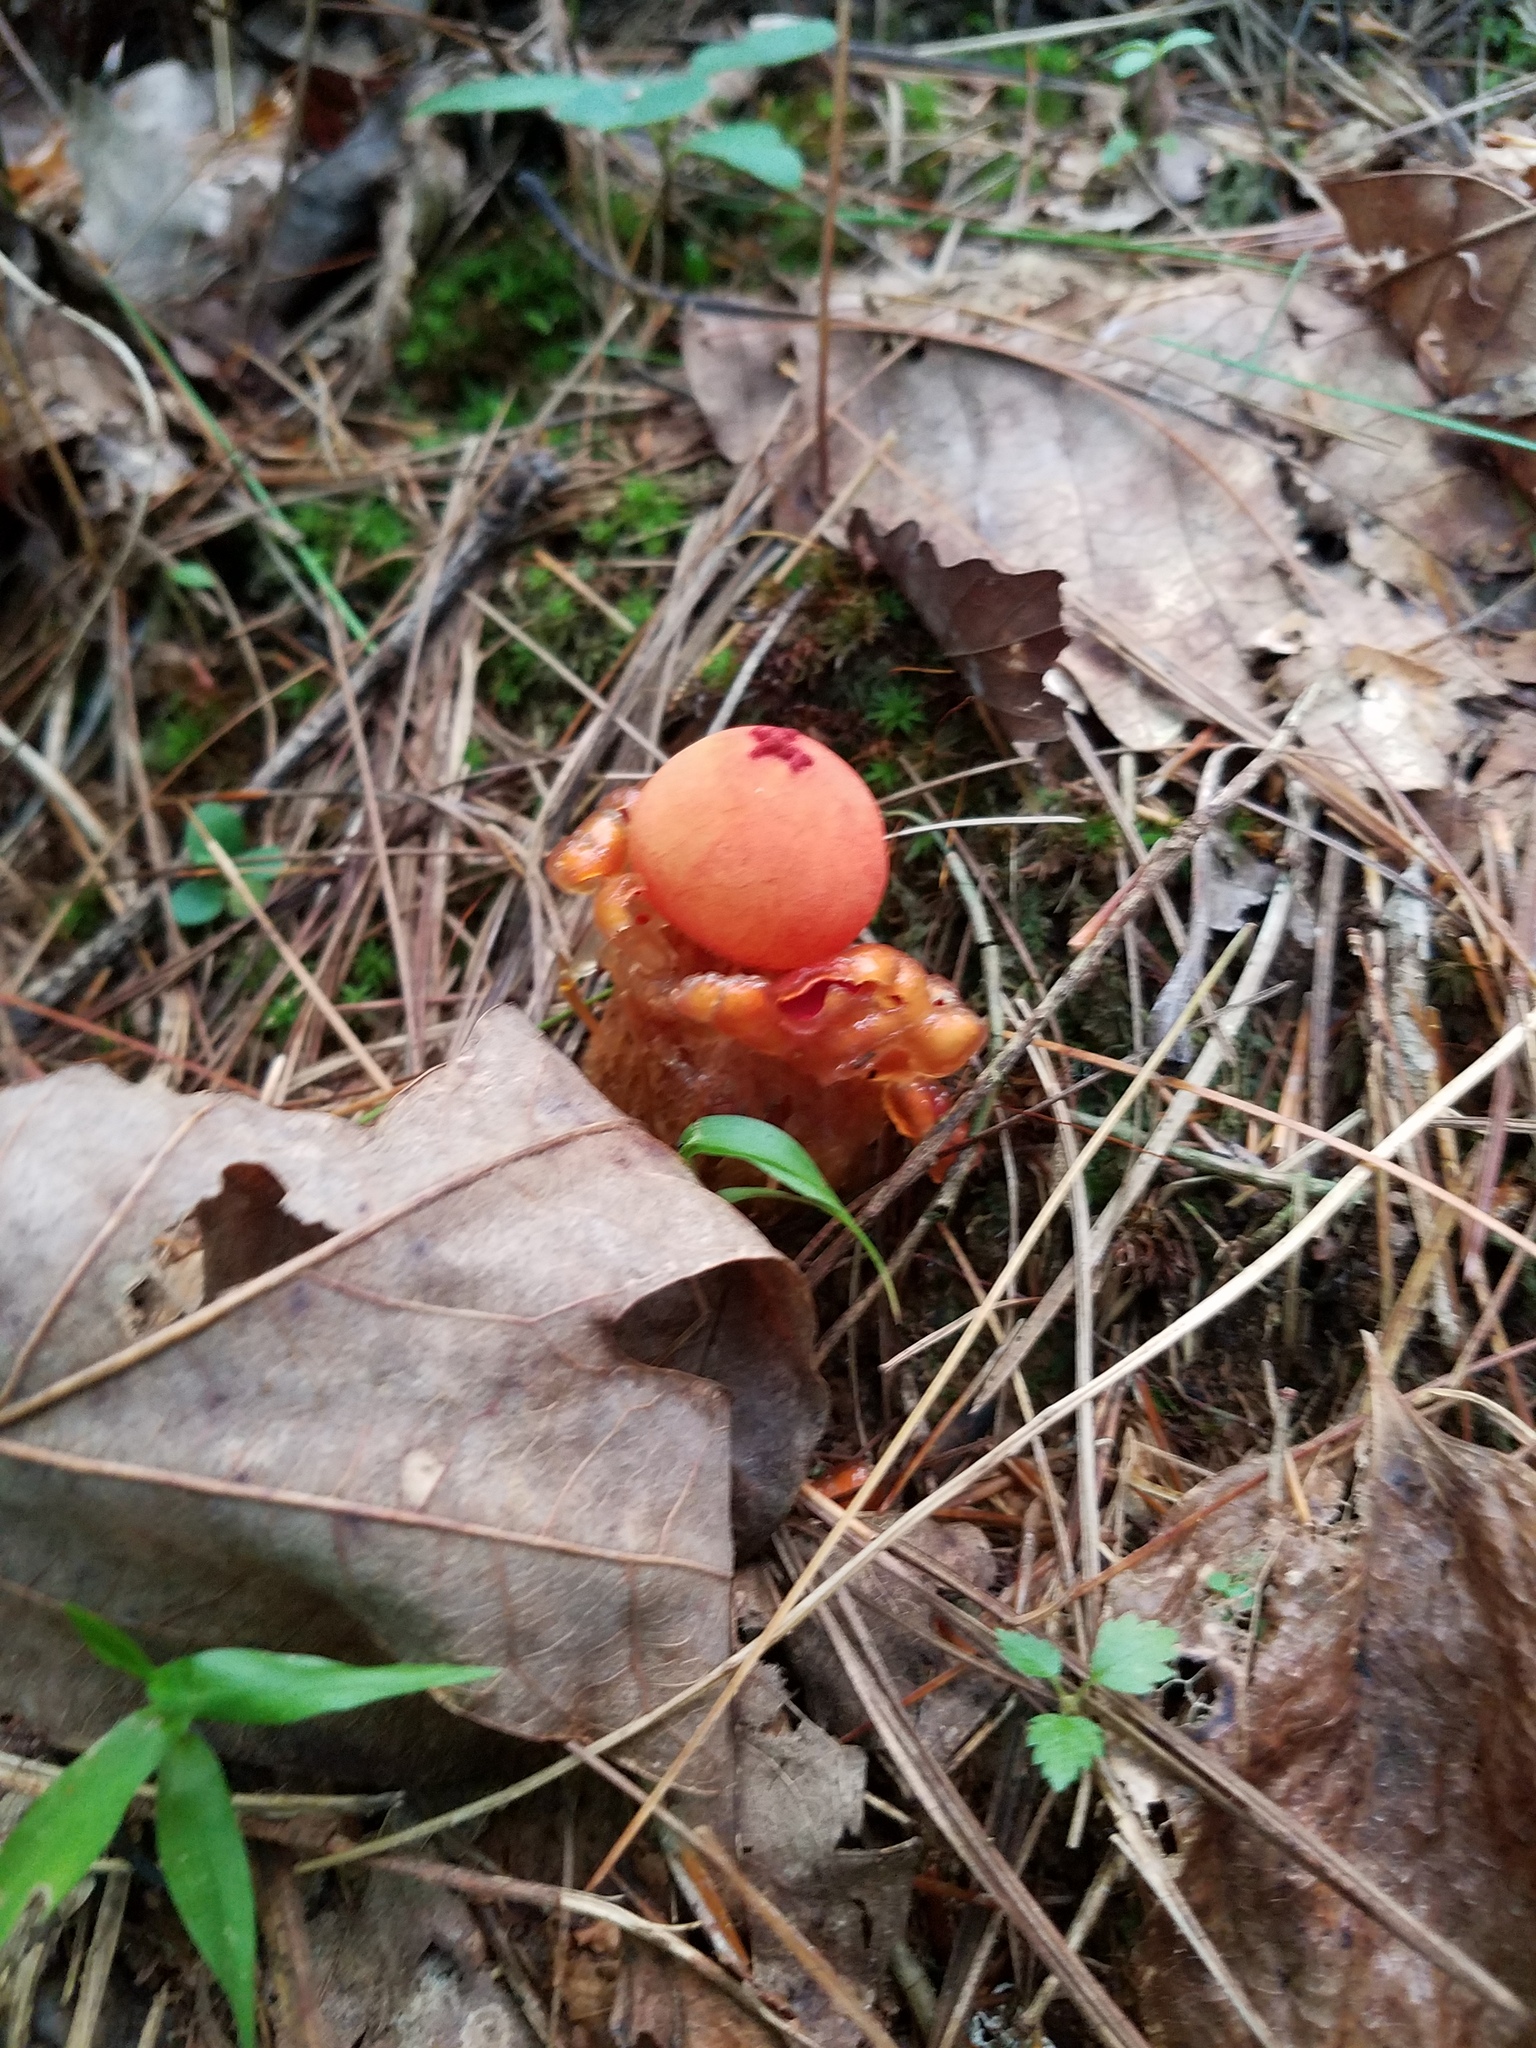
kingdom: Fungi
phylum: Basidiomycota
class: Agaricomycetes
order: Boletales
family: Calostomataceae
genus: Calostoma
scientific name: Calostoma cinnabarinum
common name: Stalked puffball-in-aspic
